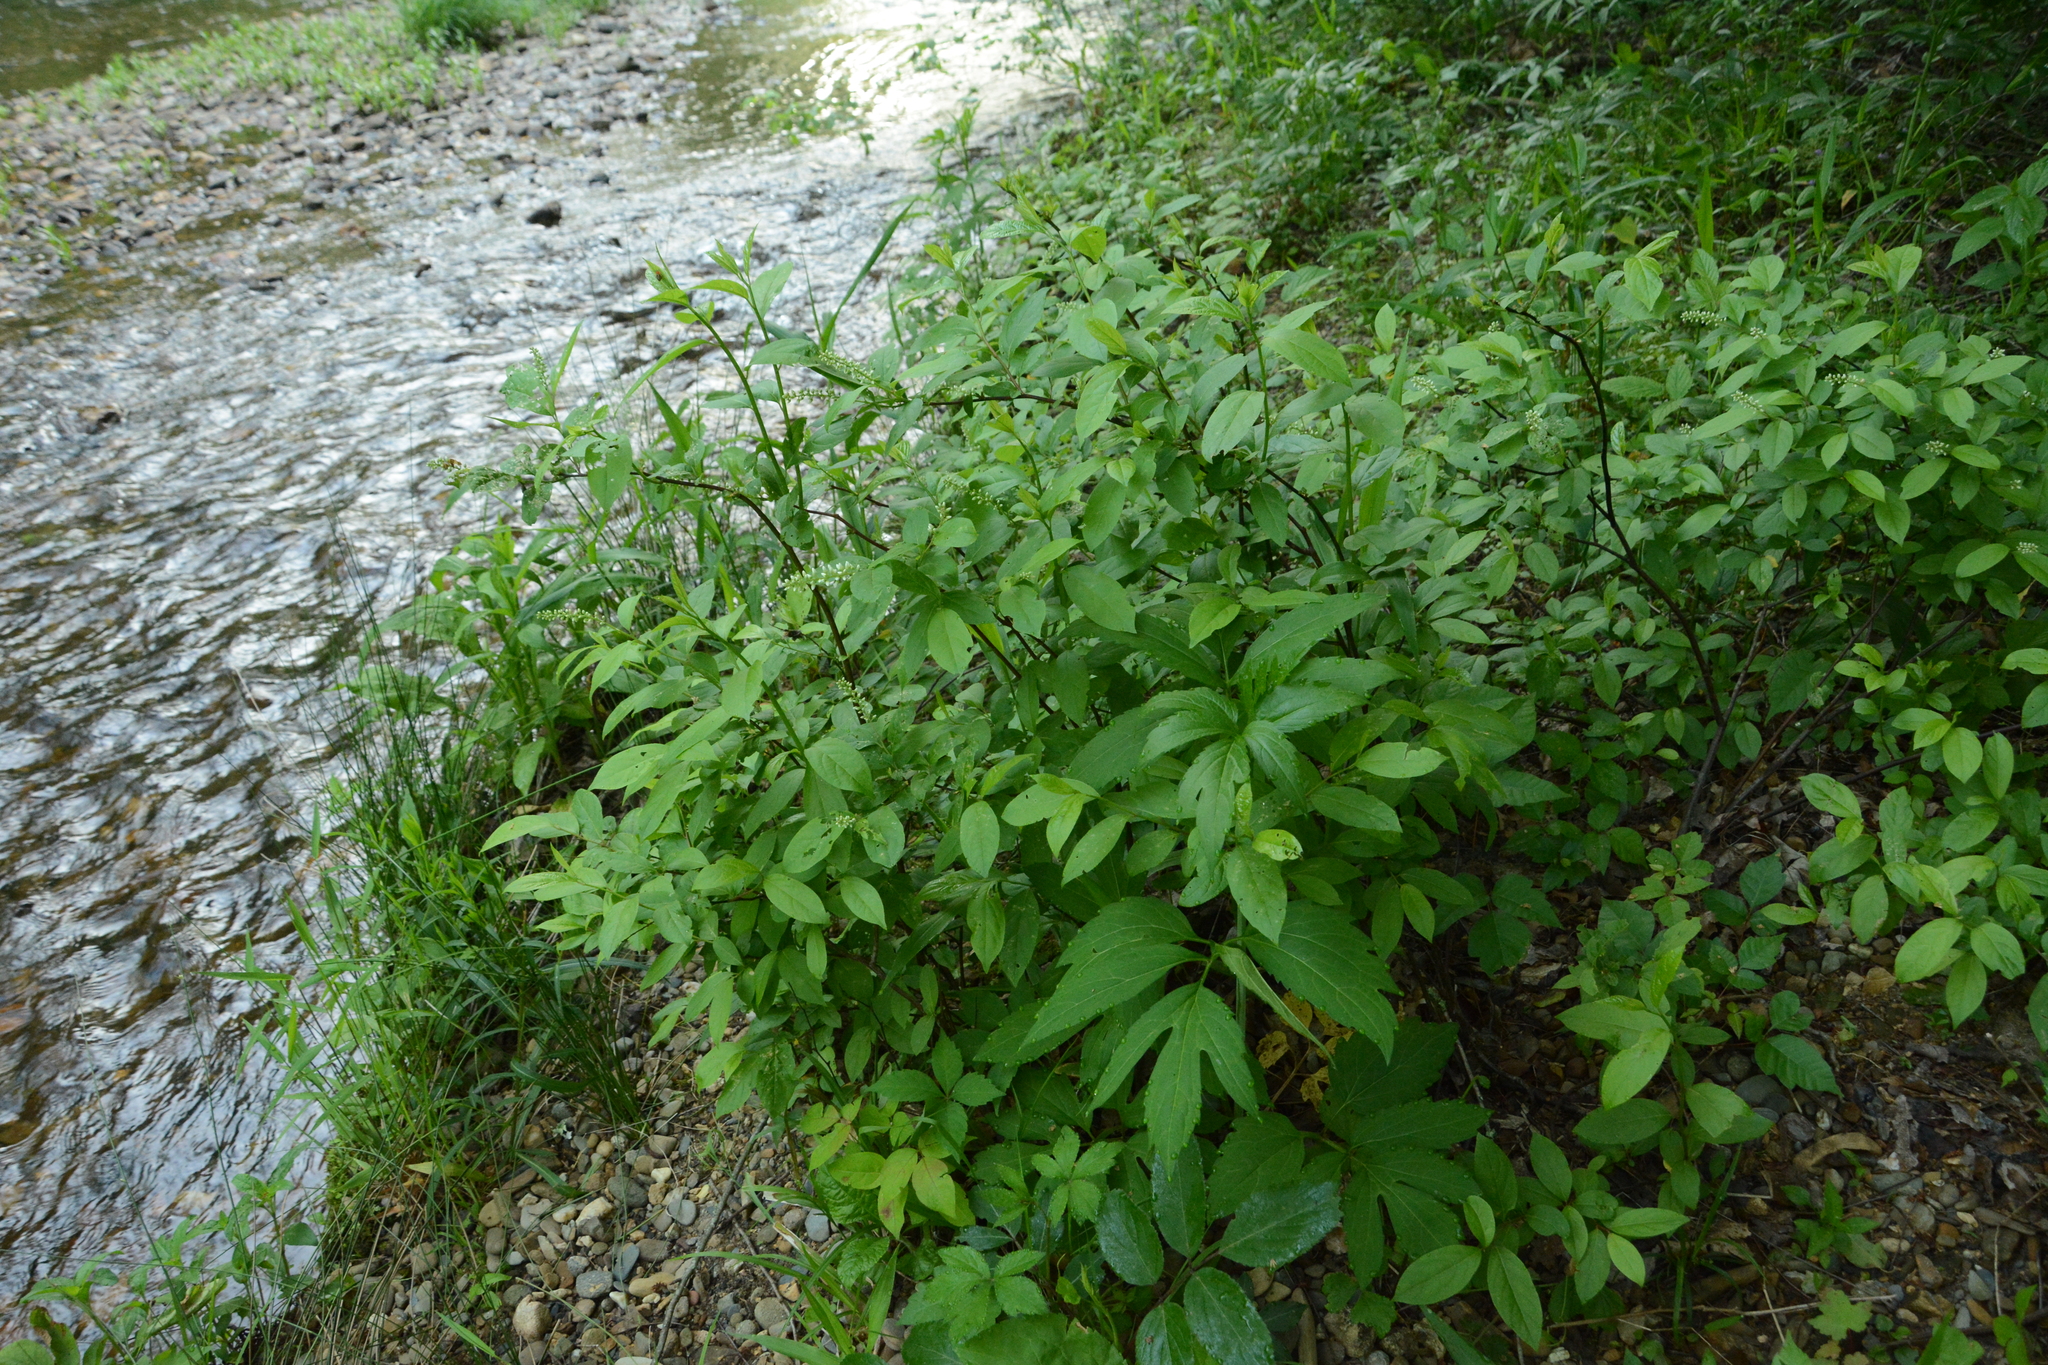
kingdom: Plantae
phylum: Tracheophyta
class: Magnoliopsida
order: Saxifragales
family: Iteaceae
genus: Itea
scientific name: Itea virginica
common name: Sweetspire
